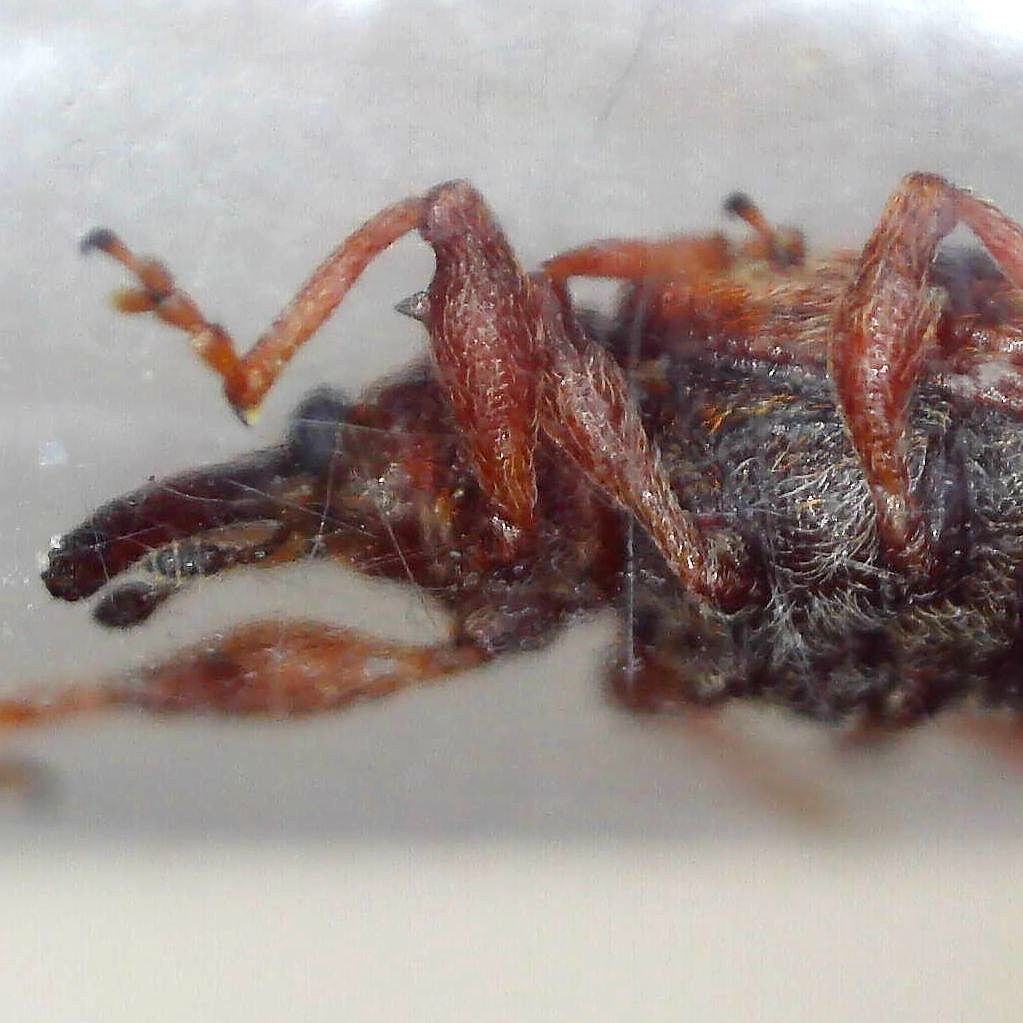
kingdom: Animalia
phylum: Arthropoda
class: Insecta
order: Coleoptera
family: Curculionidae
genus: Anthonomus
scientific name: Anthonomus pedicularius
